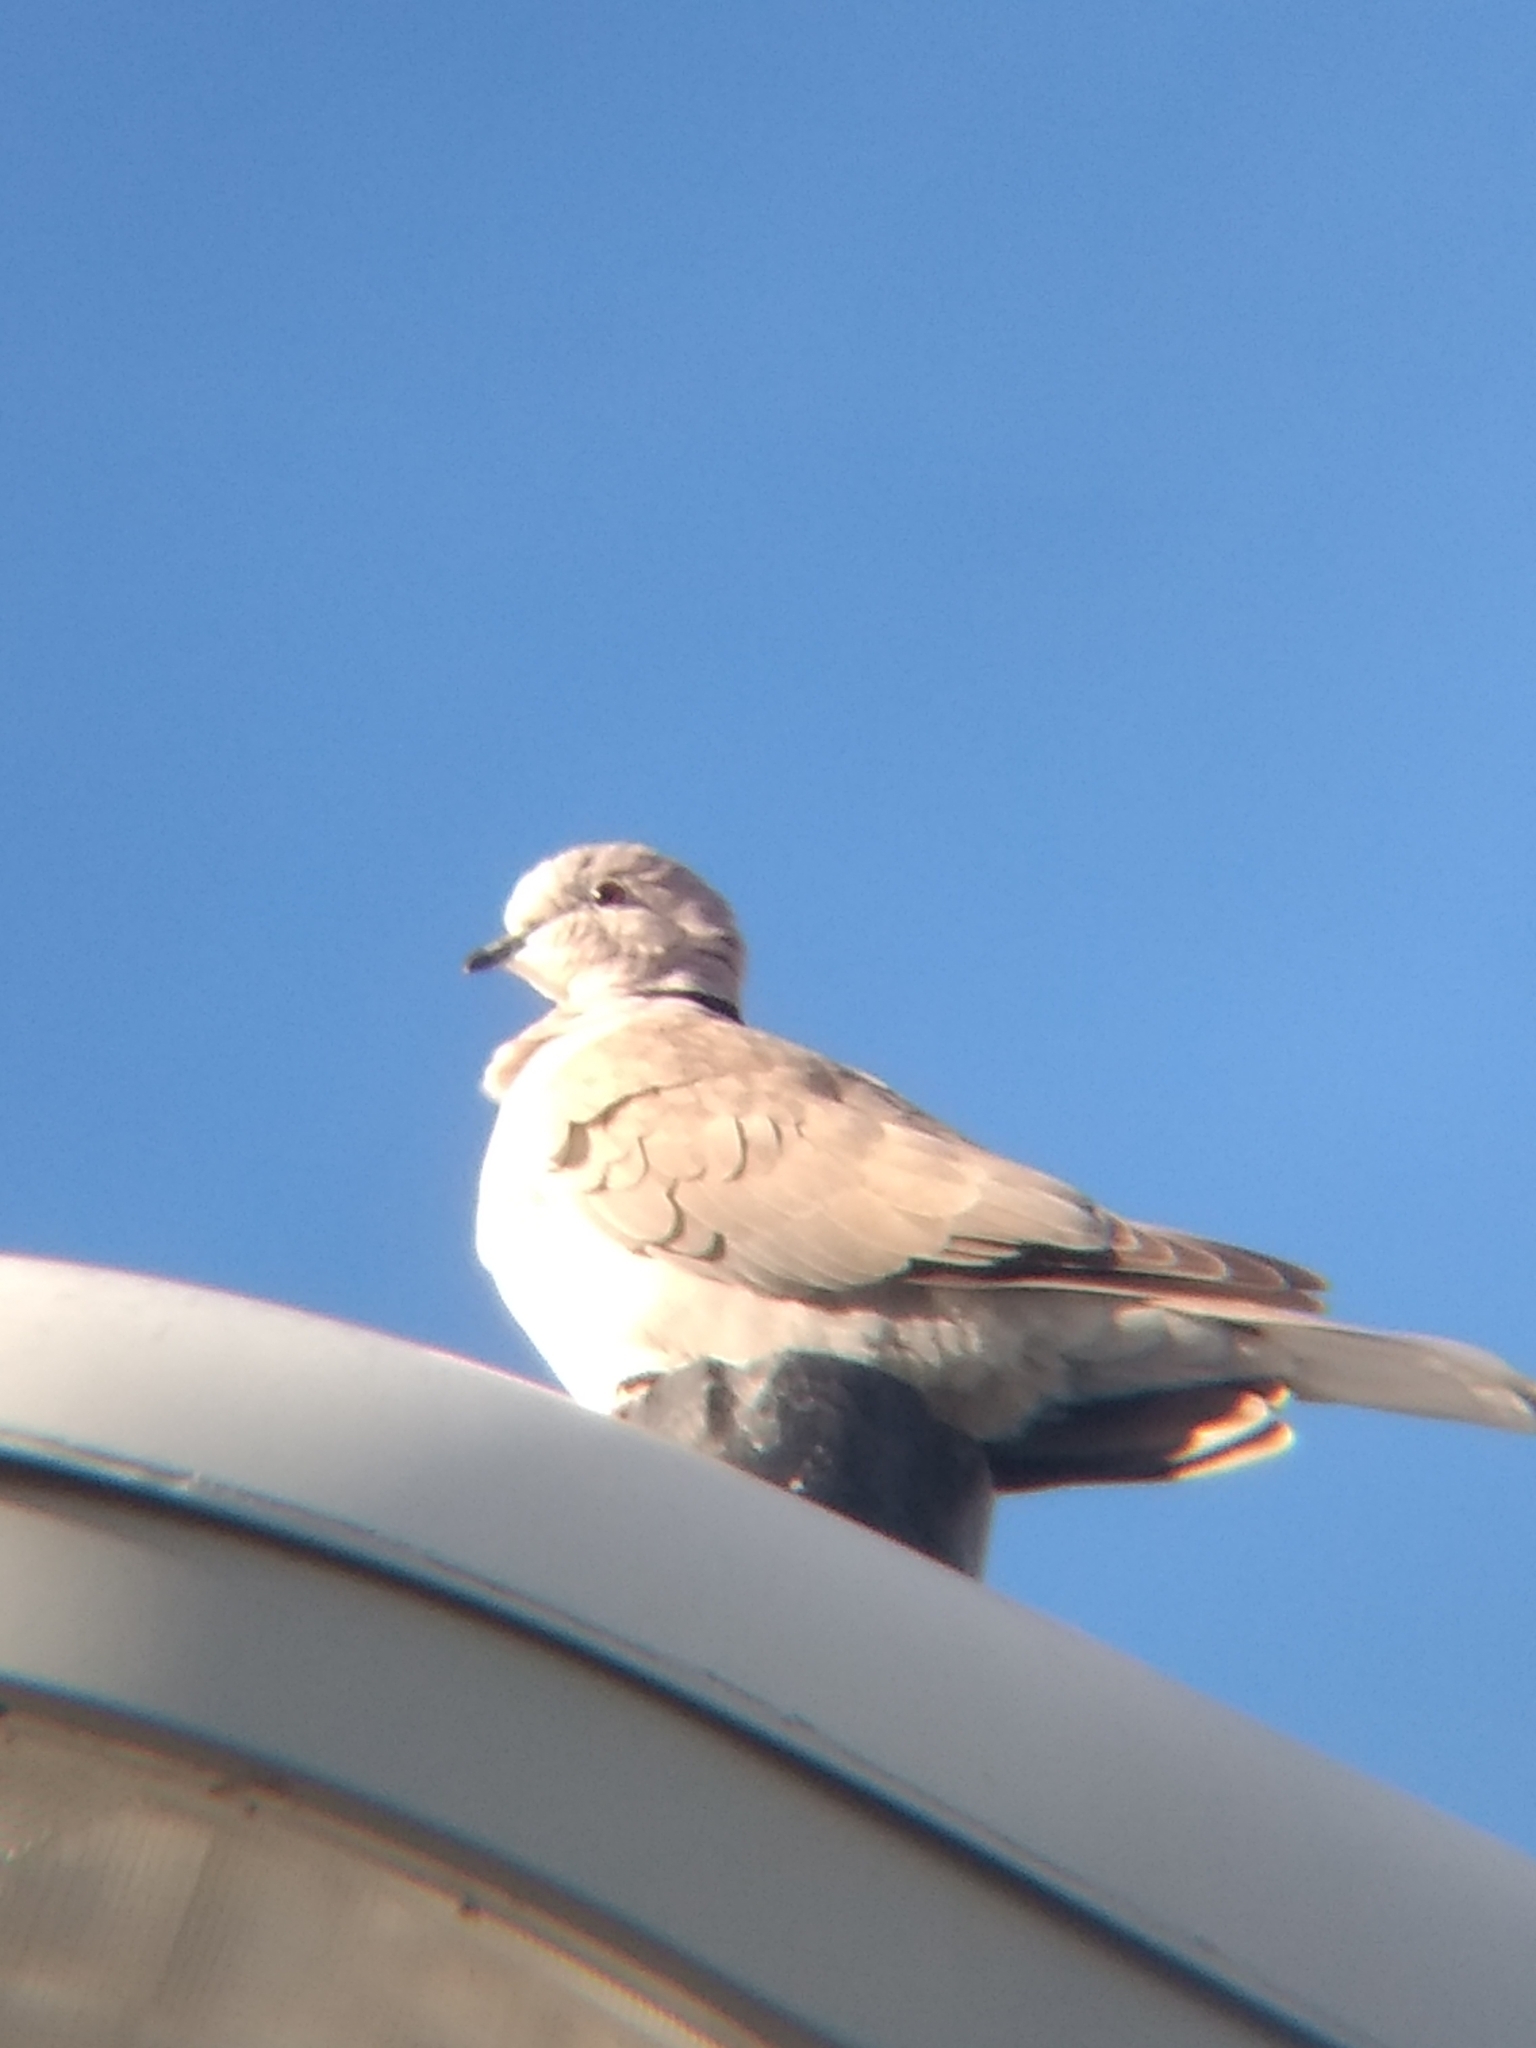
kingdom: Animalia
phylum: Chordata
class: Aves
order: Columbiformes
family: Columbidae
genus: Streptopelia
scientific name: Streptopelia decaocto
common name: Eurasian collared dove
